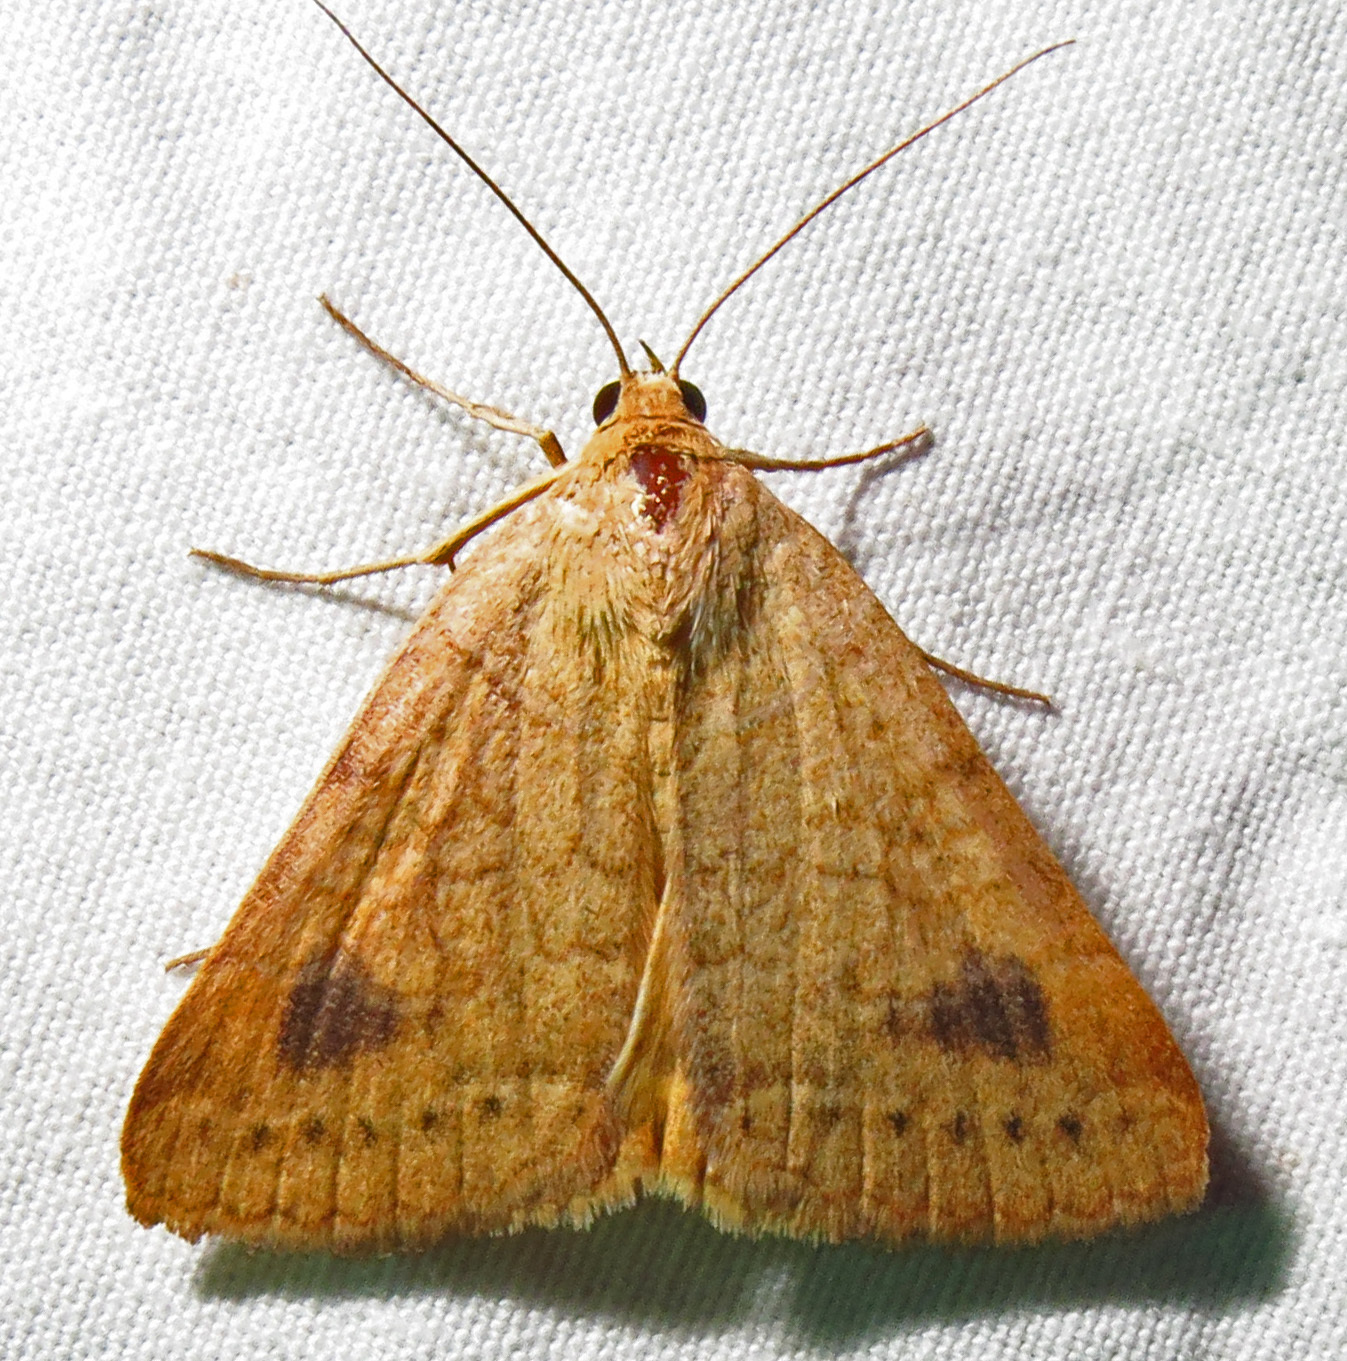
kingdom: Animalia
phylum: Arthropoda
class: Insecta
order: Lepidoptera
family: Erebidae
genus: Caenurgia
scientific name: Caenurgia chloropha
